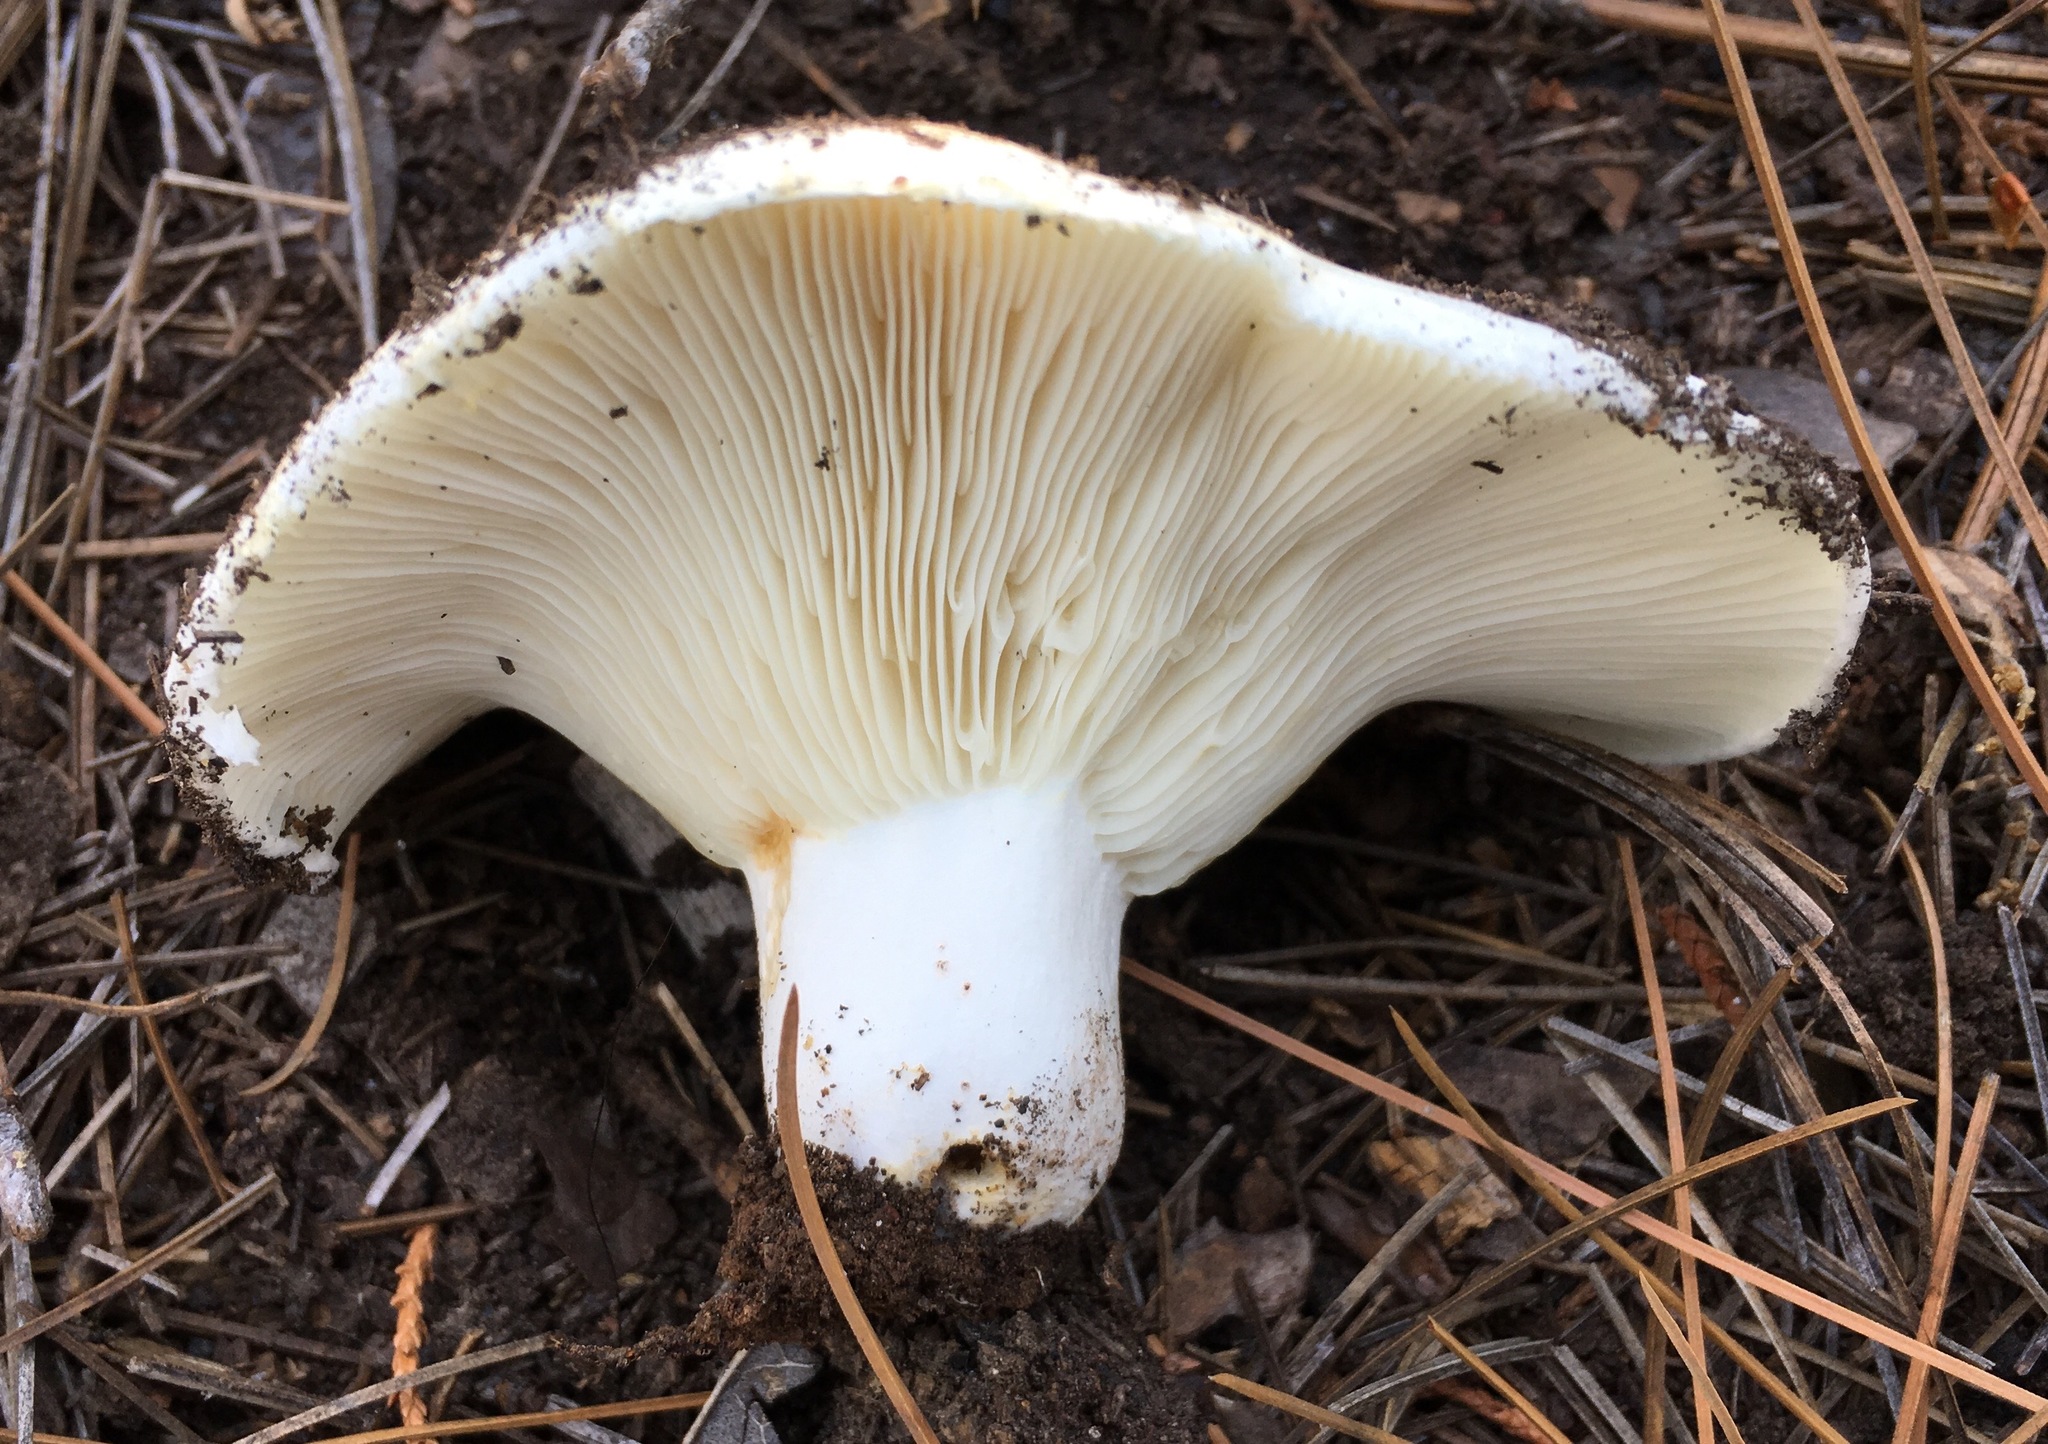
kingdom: Fungi
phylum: Basidiomycota
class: Agaricomycetes
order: Russulales
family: Russulaceae
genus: Russula
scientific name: Russula brevipes
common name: Short-stemmed russula
